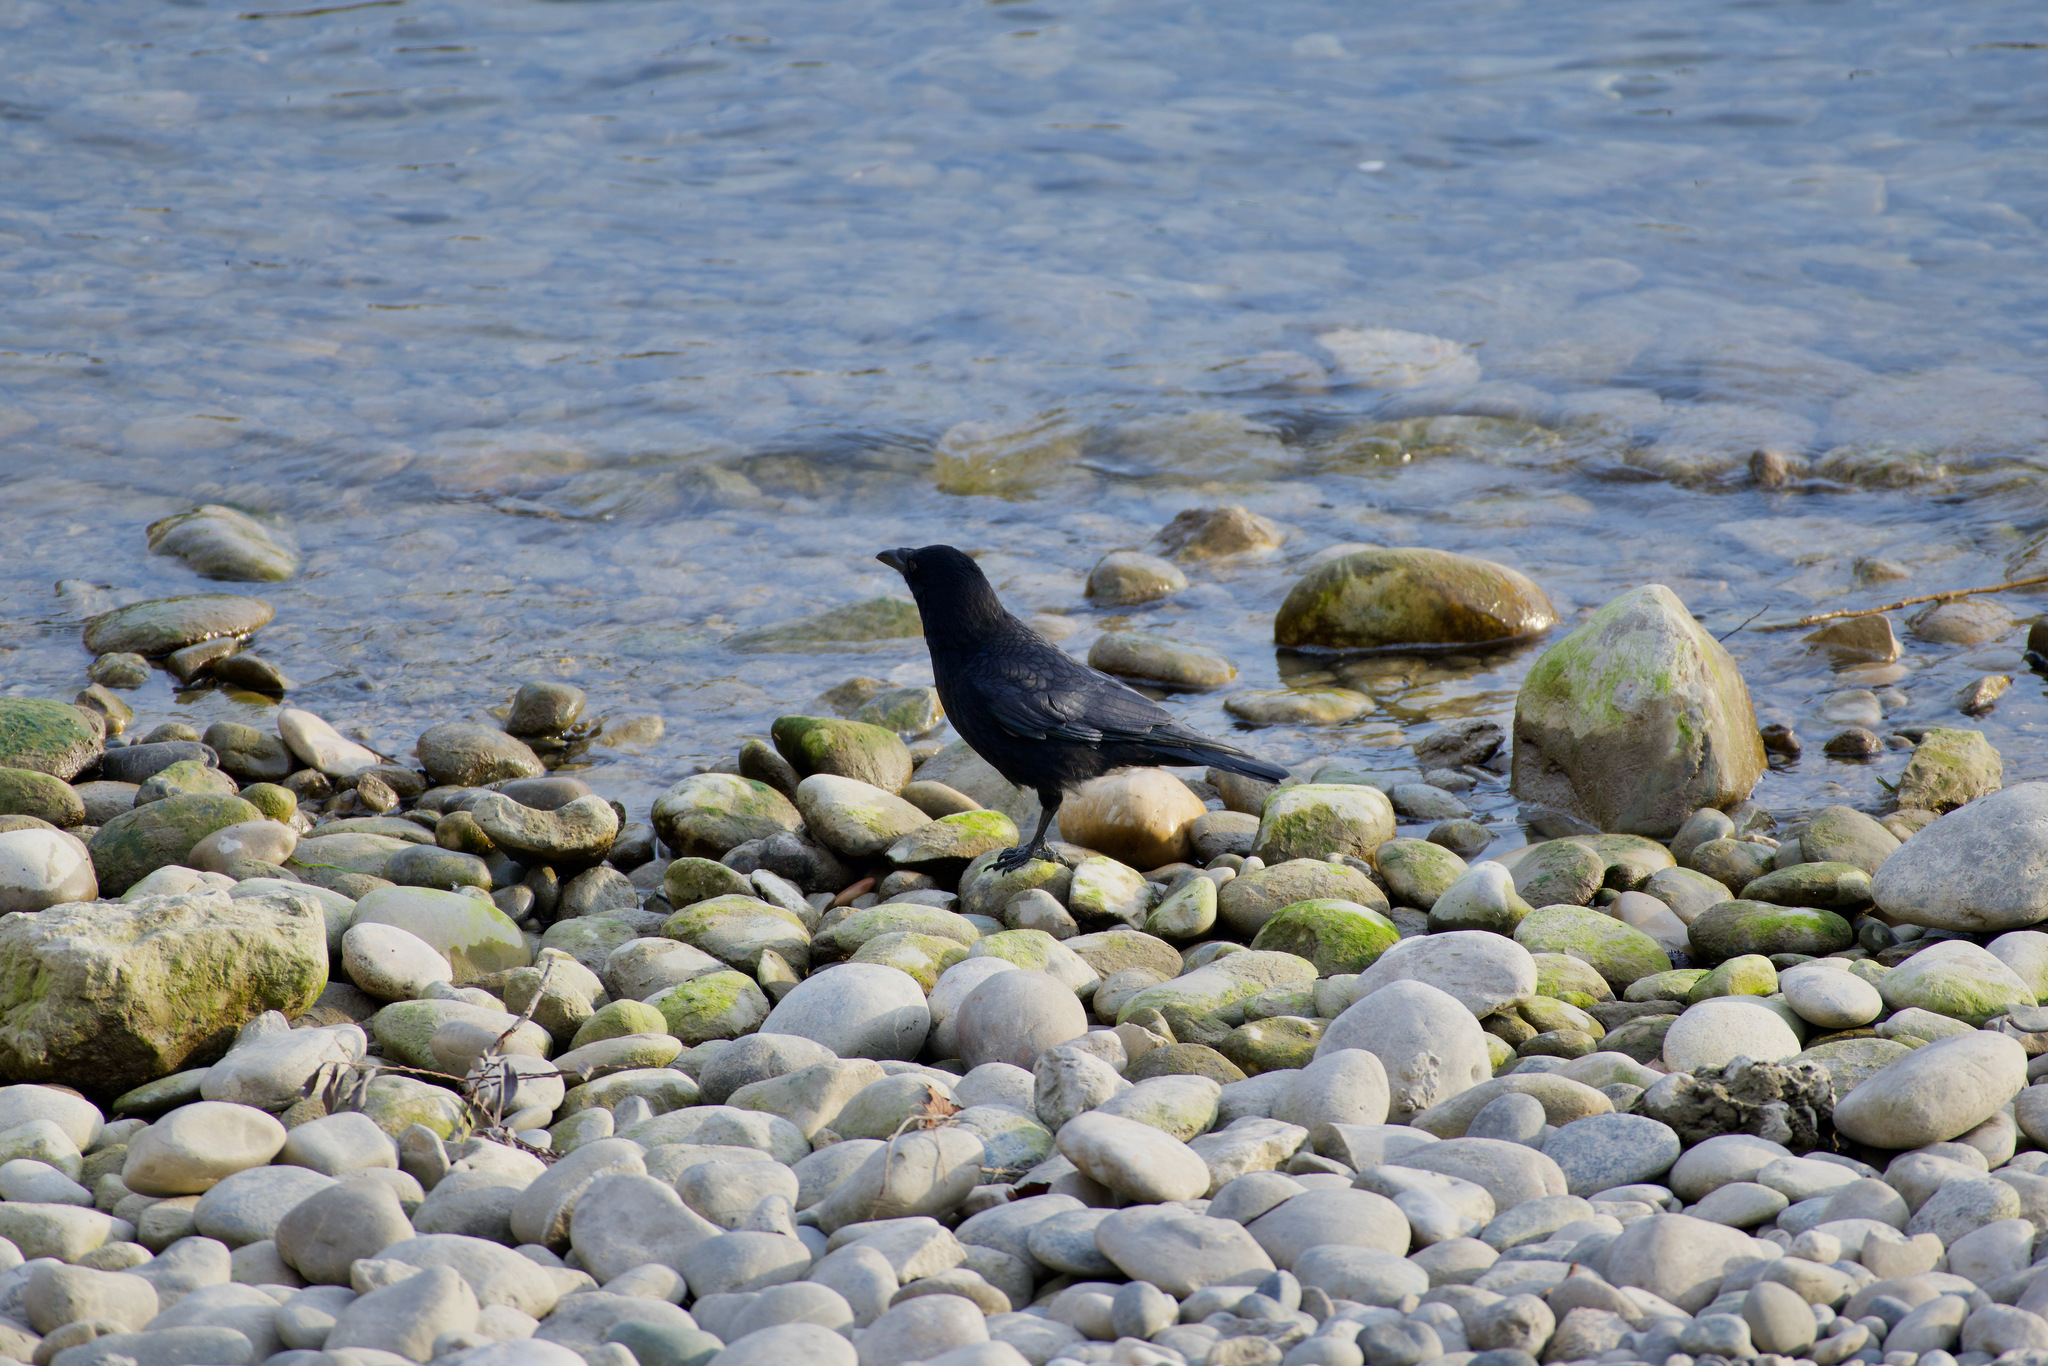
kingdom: Animalia
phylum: Chordata
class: Aves
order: Passeriformes
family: Corvidae
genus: Corvus
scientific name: Corvus corone
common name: Carrion crow
